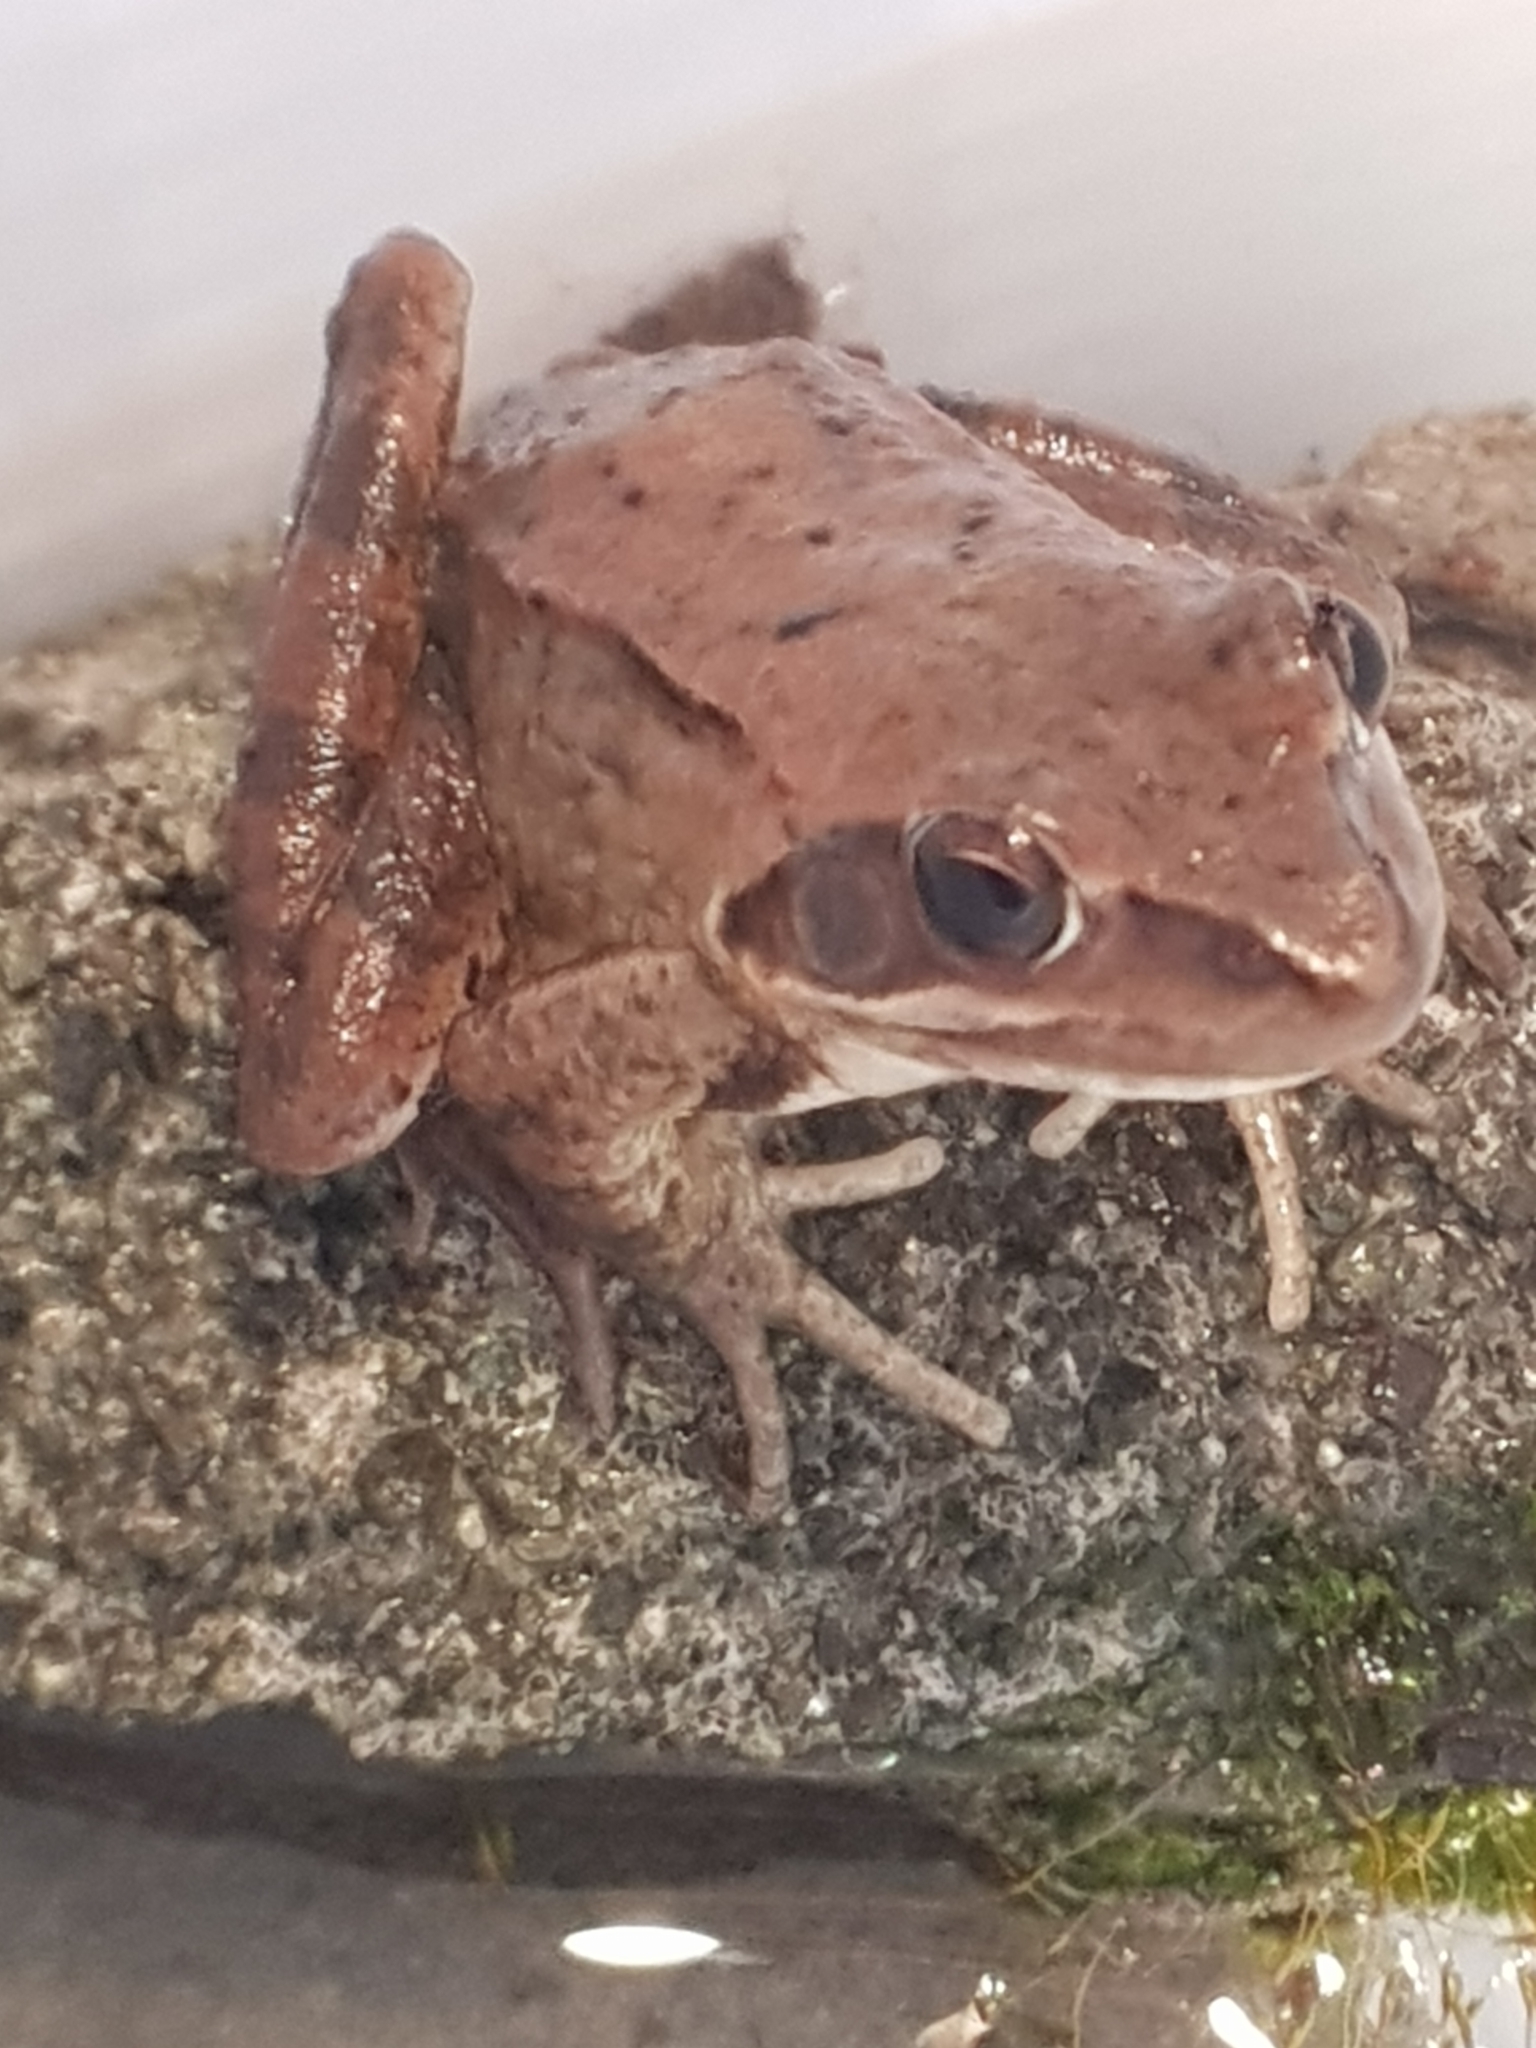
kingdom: Animalia
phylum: Chordata
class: Amphibia
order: Anura
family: Ranidae
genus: Rana
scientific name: Rana dalmatina
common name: Agile frog
